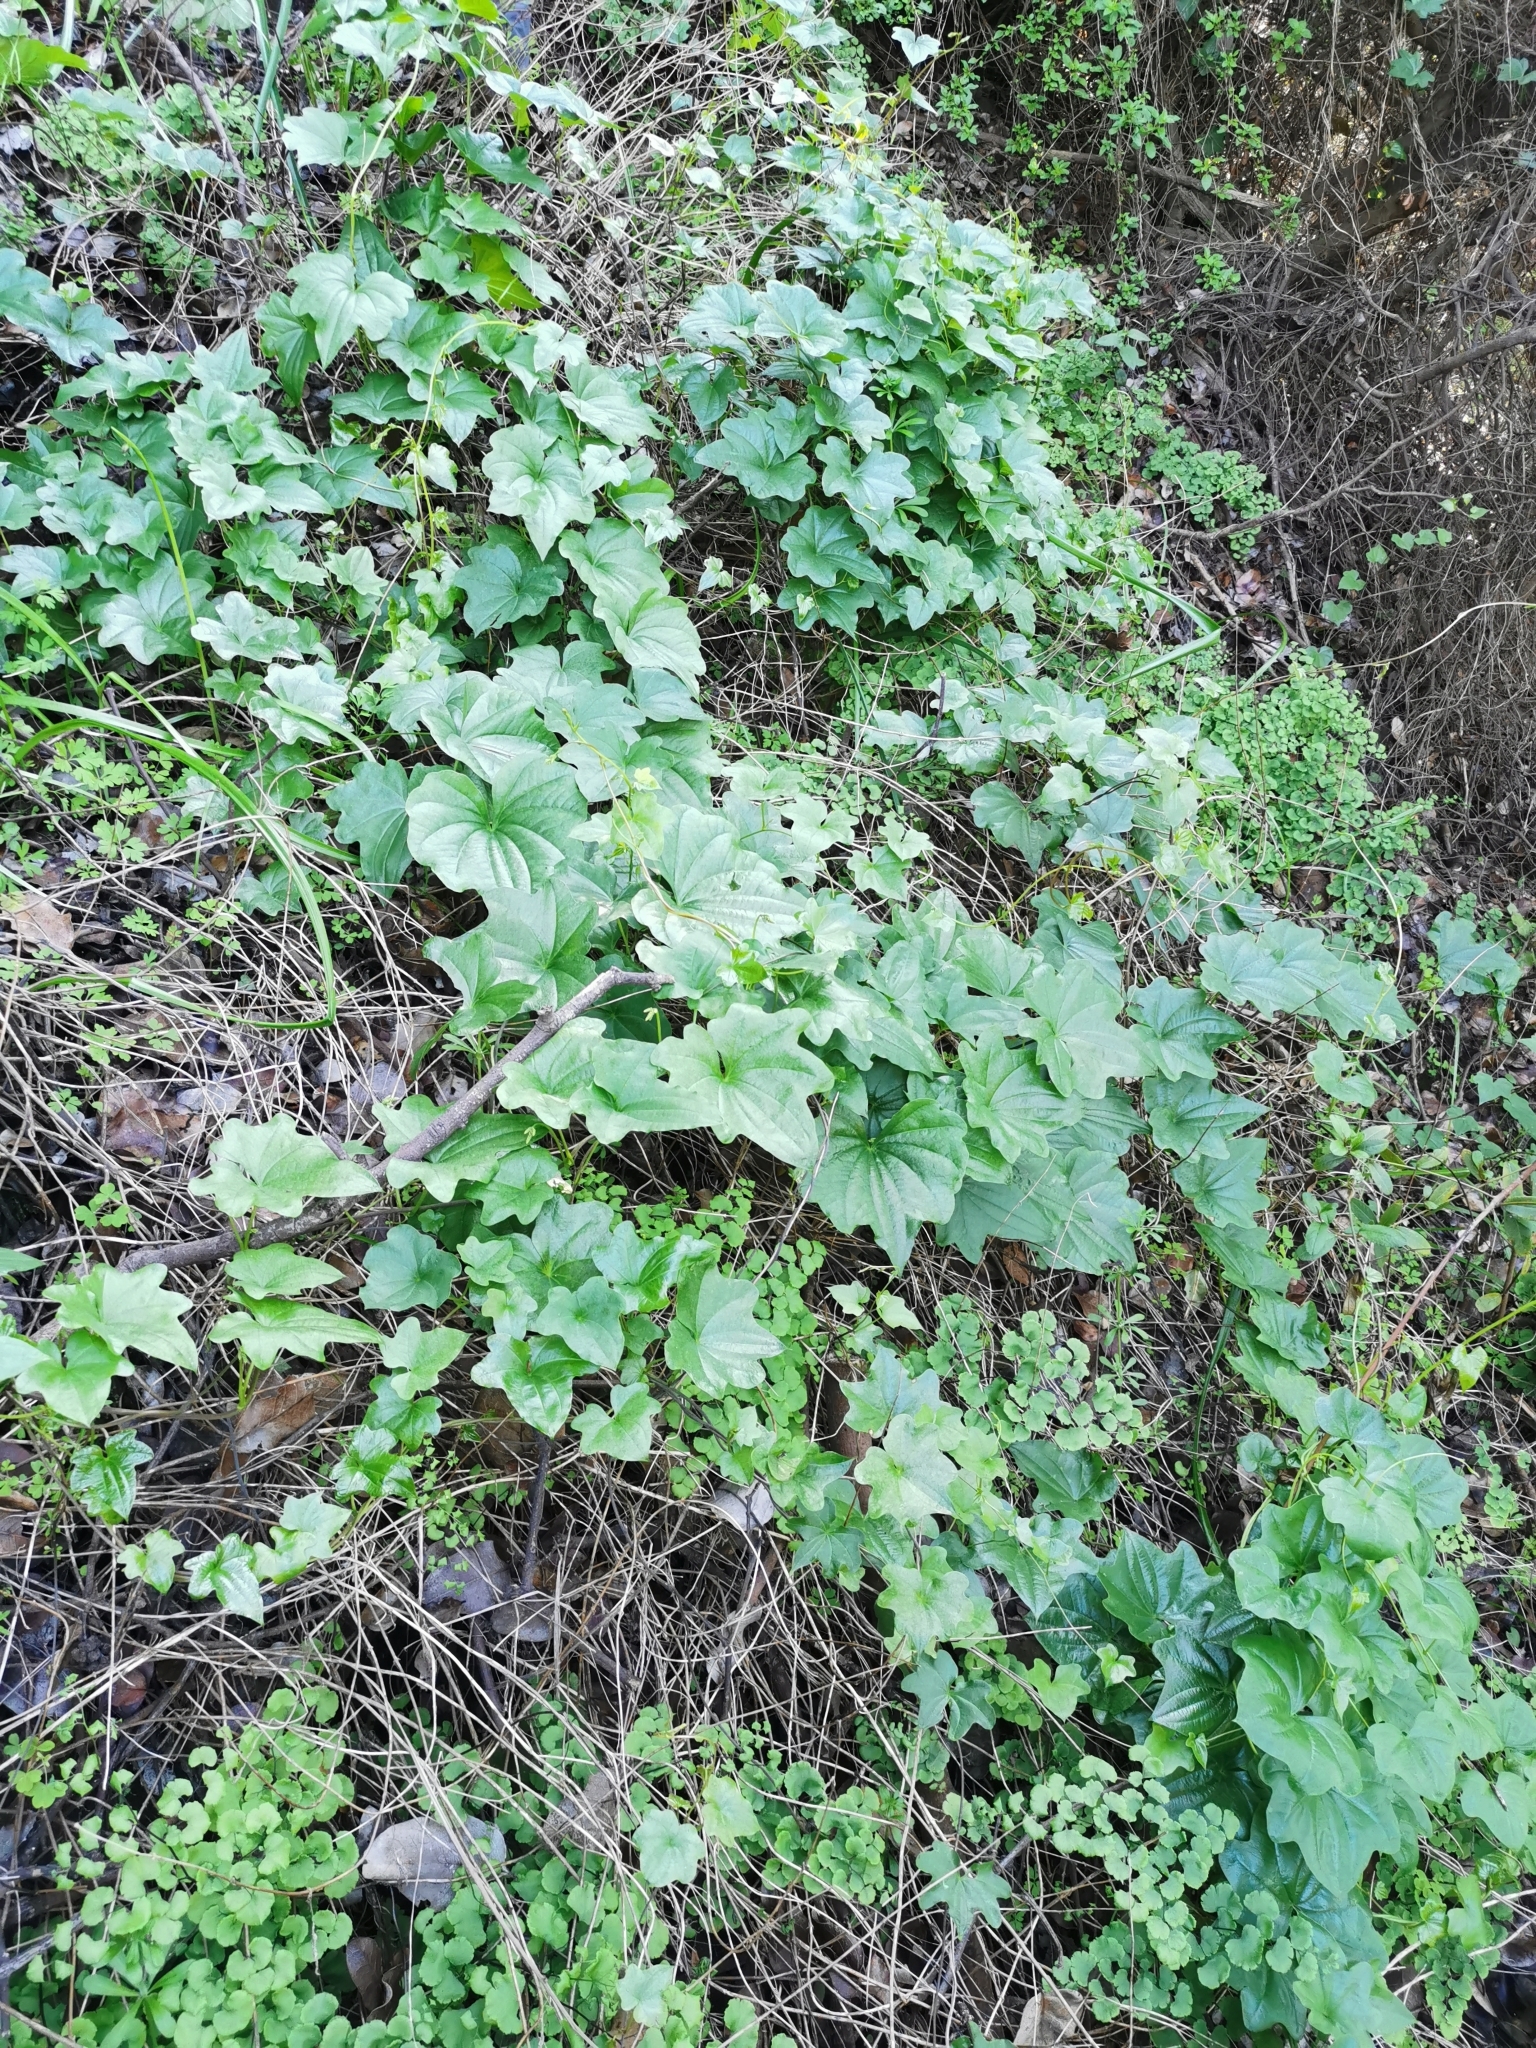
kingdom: Plantae
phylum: Tracheophyta
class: Liliopsida
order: Dioscoreales
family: Dioscoreaceae
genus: Dioscorea
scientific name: Dioscorea bryoniifolia
